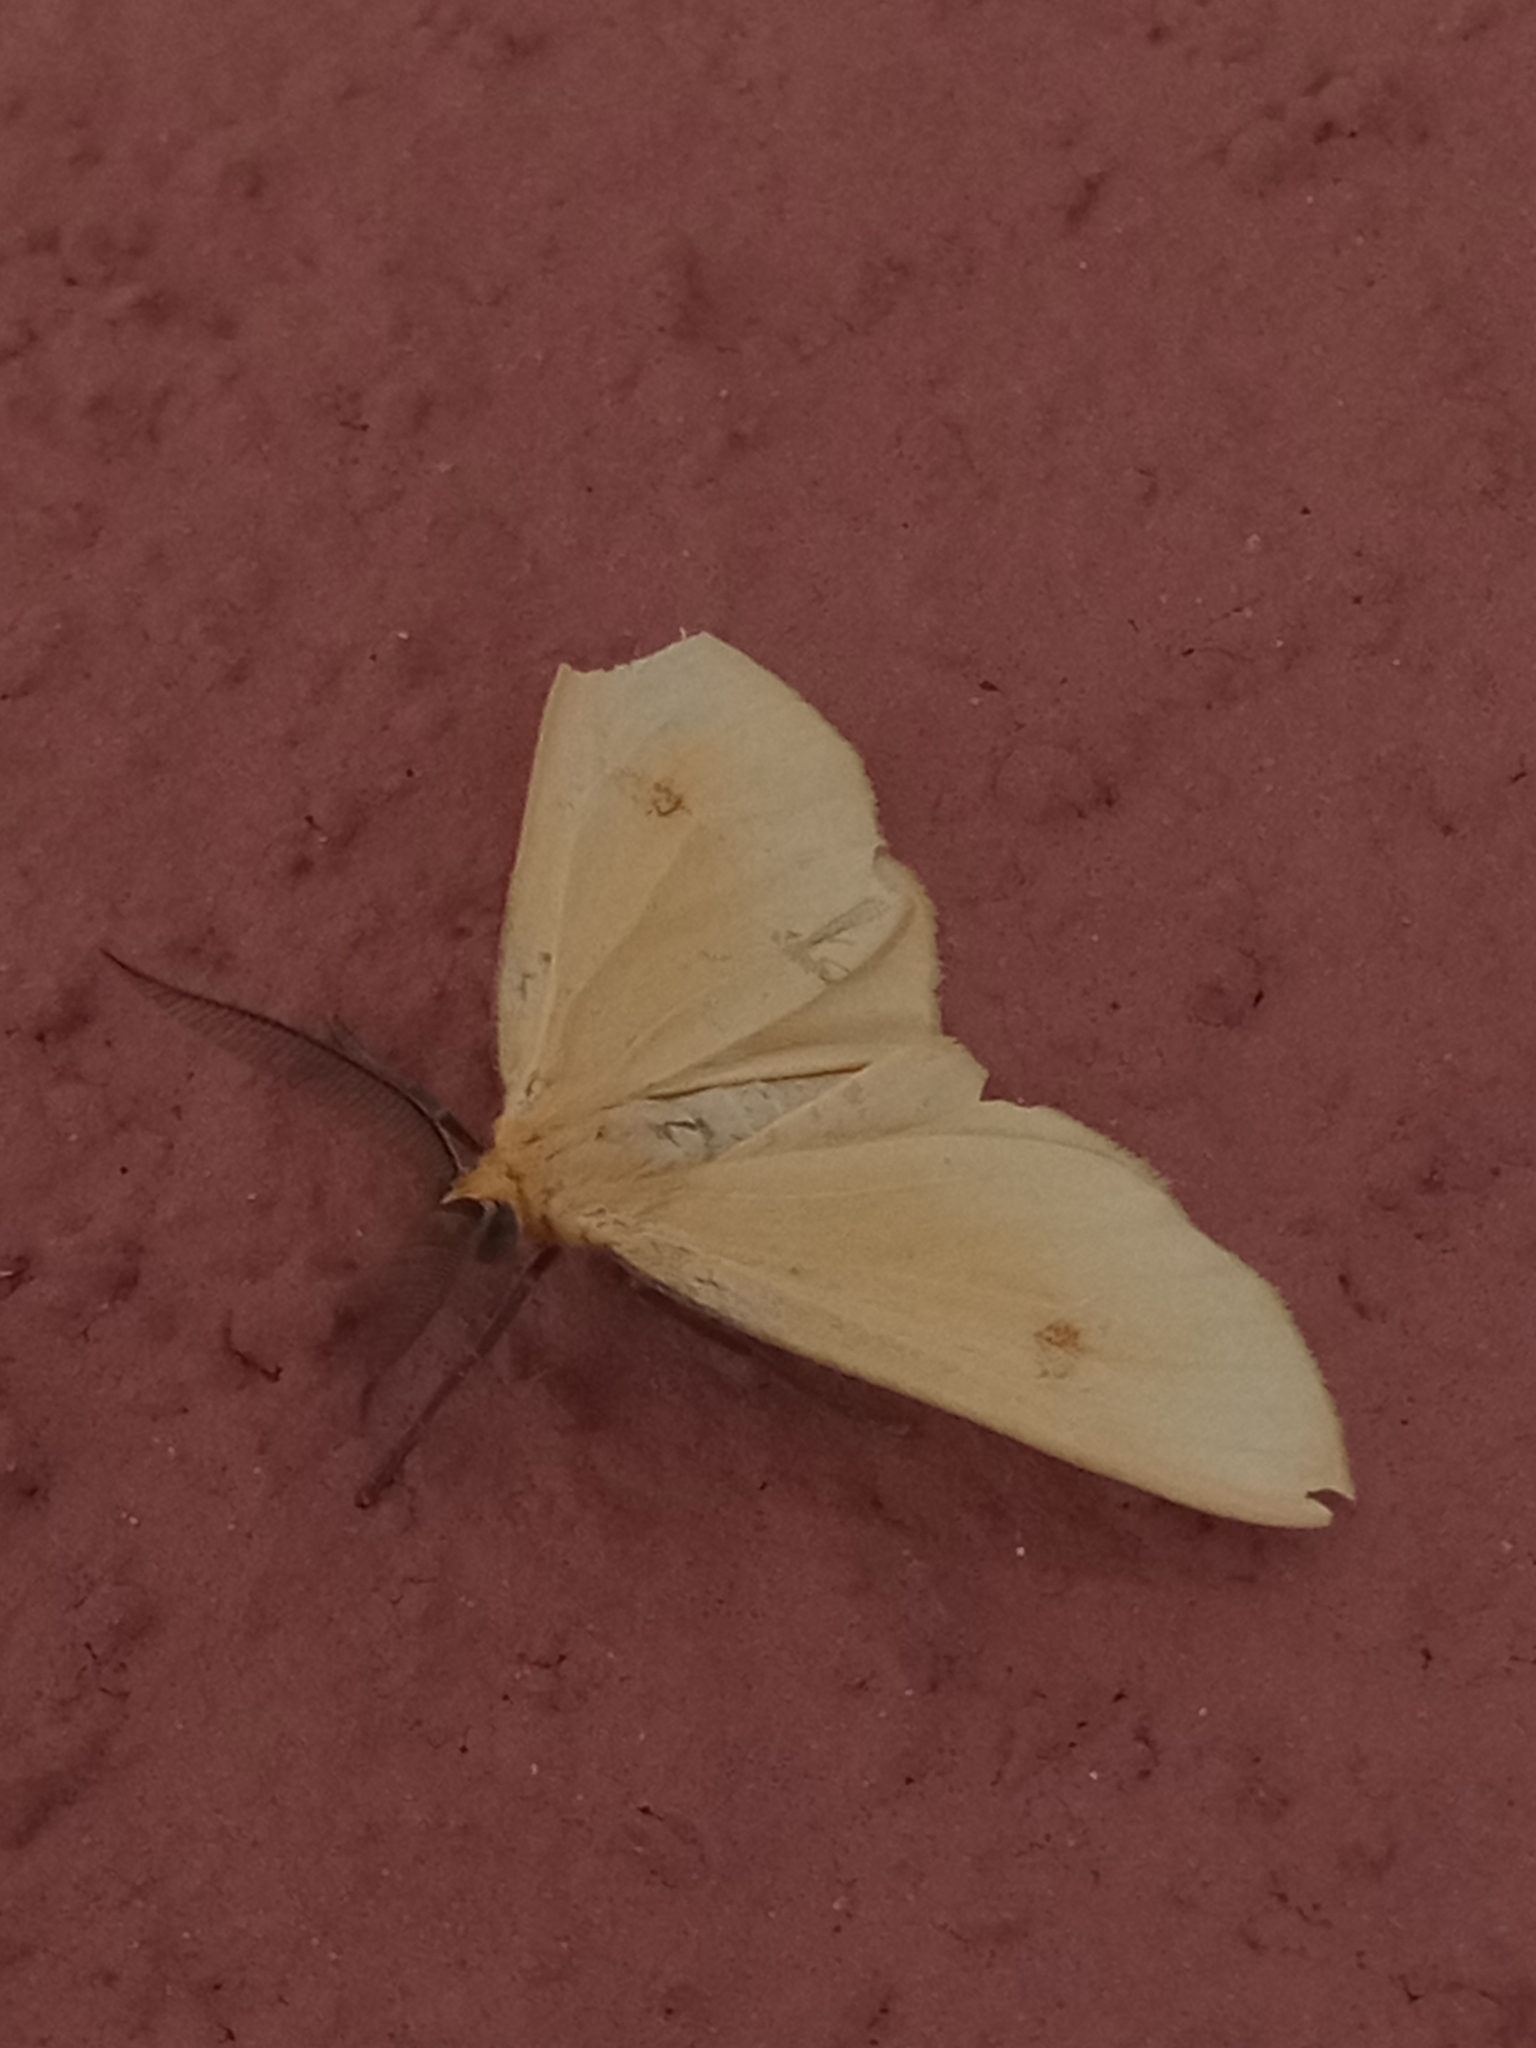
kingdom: Animalia
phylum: Arthropoda
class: Insecta
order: Lepidoptera
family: Geometridae
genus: Geodena
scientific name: Geodena pringlei
